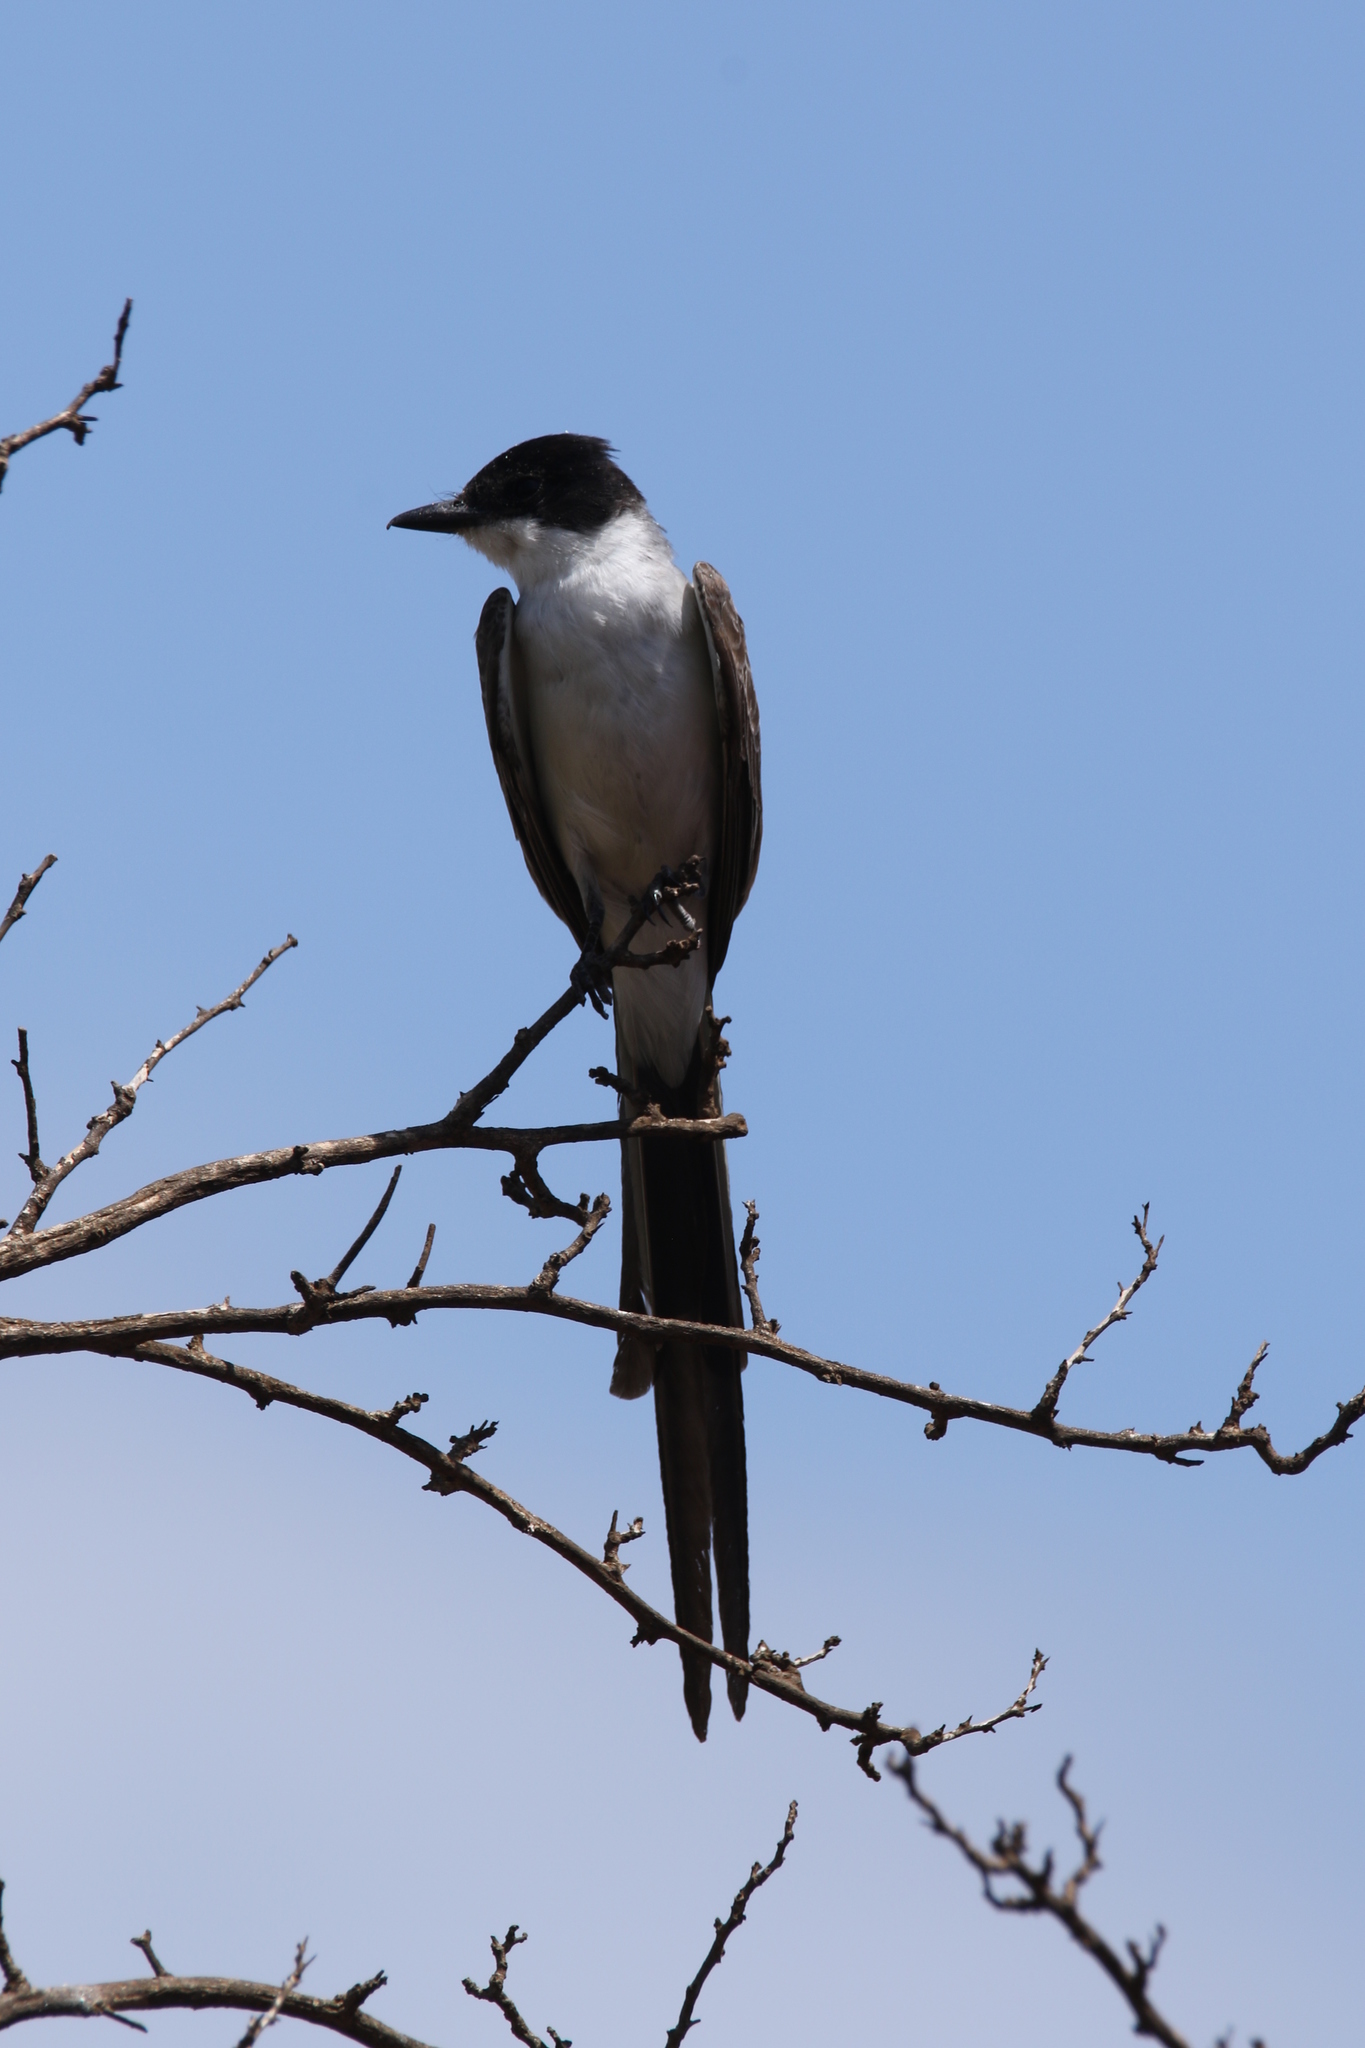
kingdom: Animalia
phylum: Chordata
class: Aves
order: Passeriformes
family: Tyrannidae
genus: Tyrannus
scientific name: Tyrannus savana
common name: Fork-tailed flycatcher
